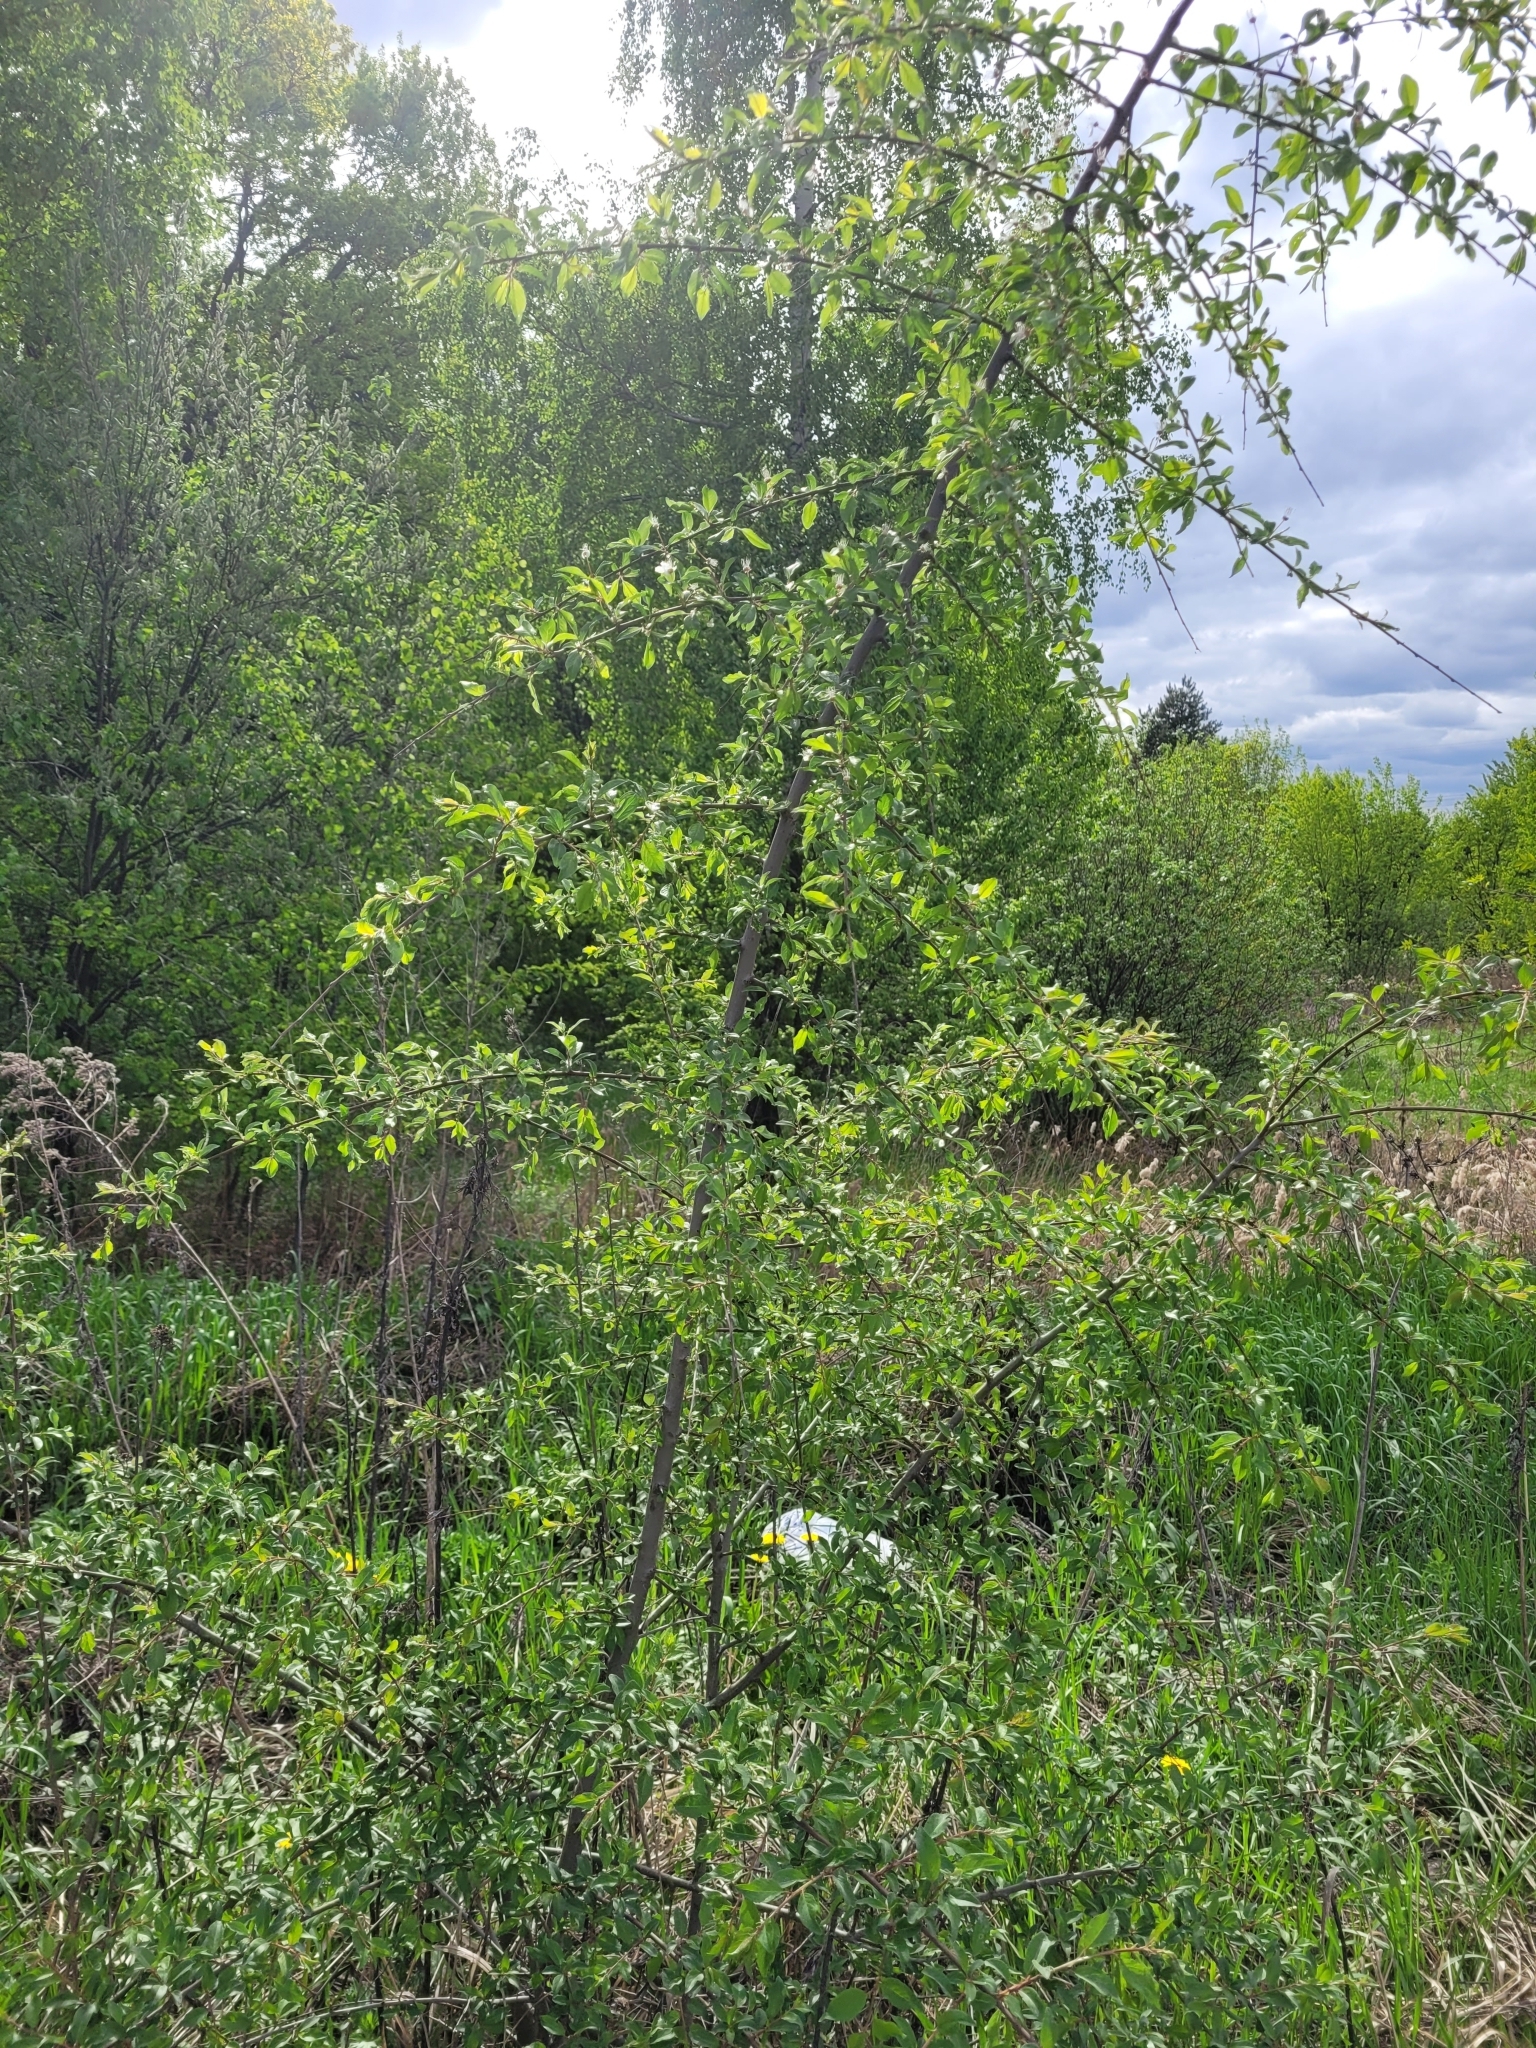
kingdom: Plantae
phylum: Tracheophyta
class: Magnoliopsida
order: Rosales
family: Rosaceae
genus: Prunus
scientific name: Prunus cerasifera
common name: Cherry plum
